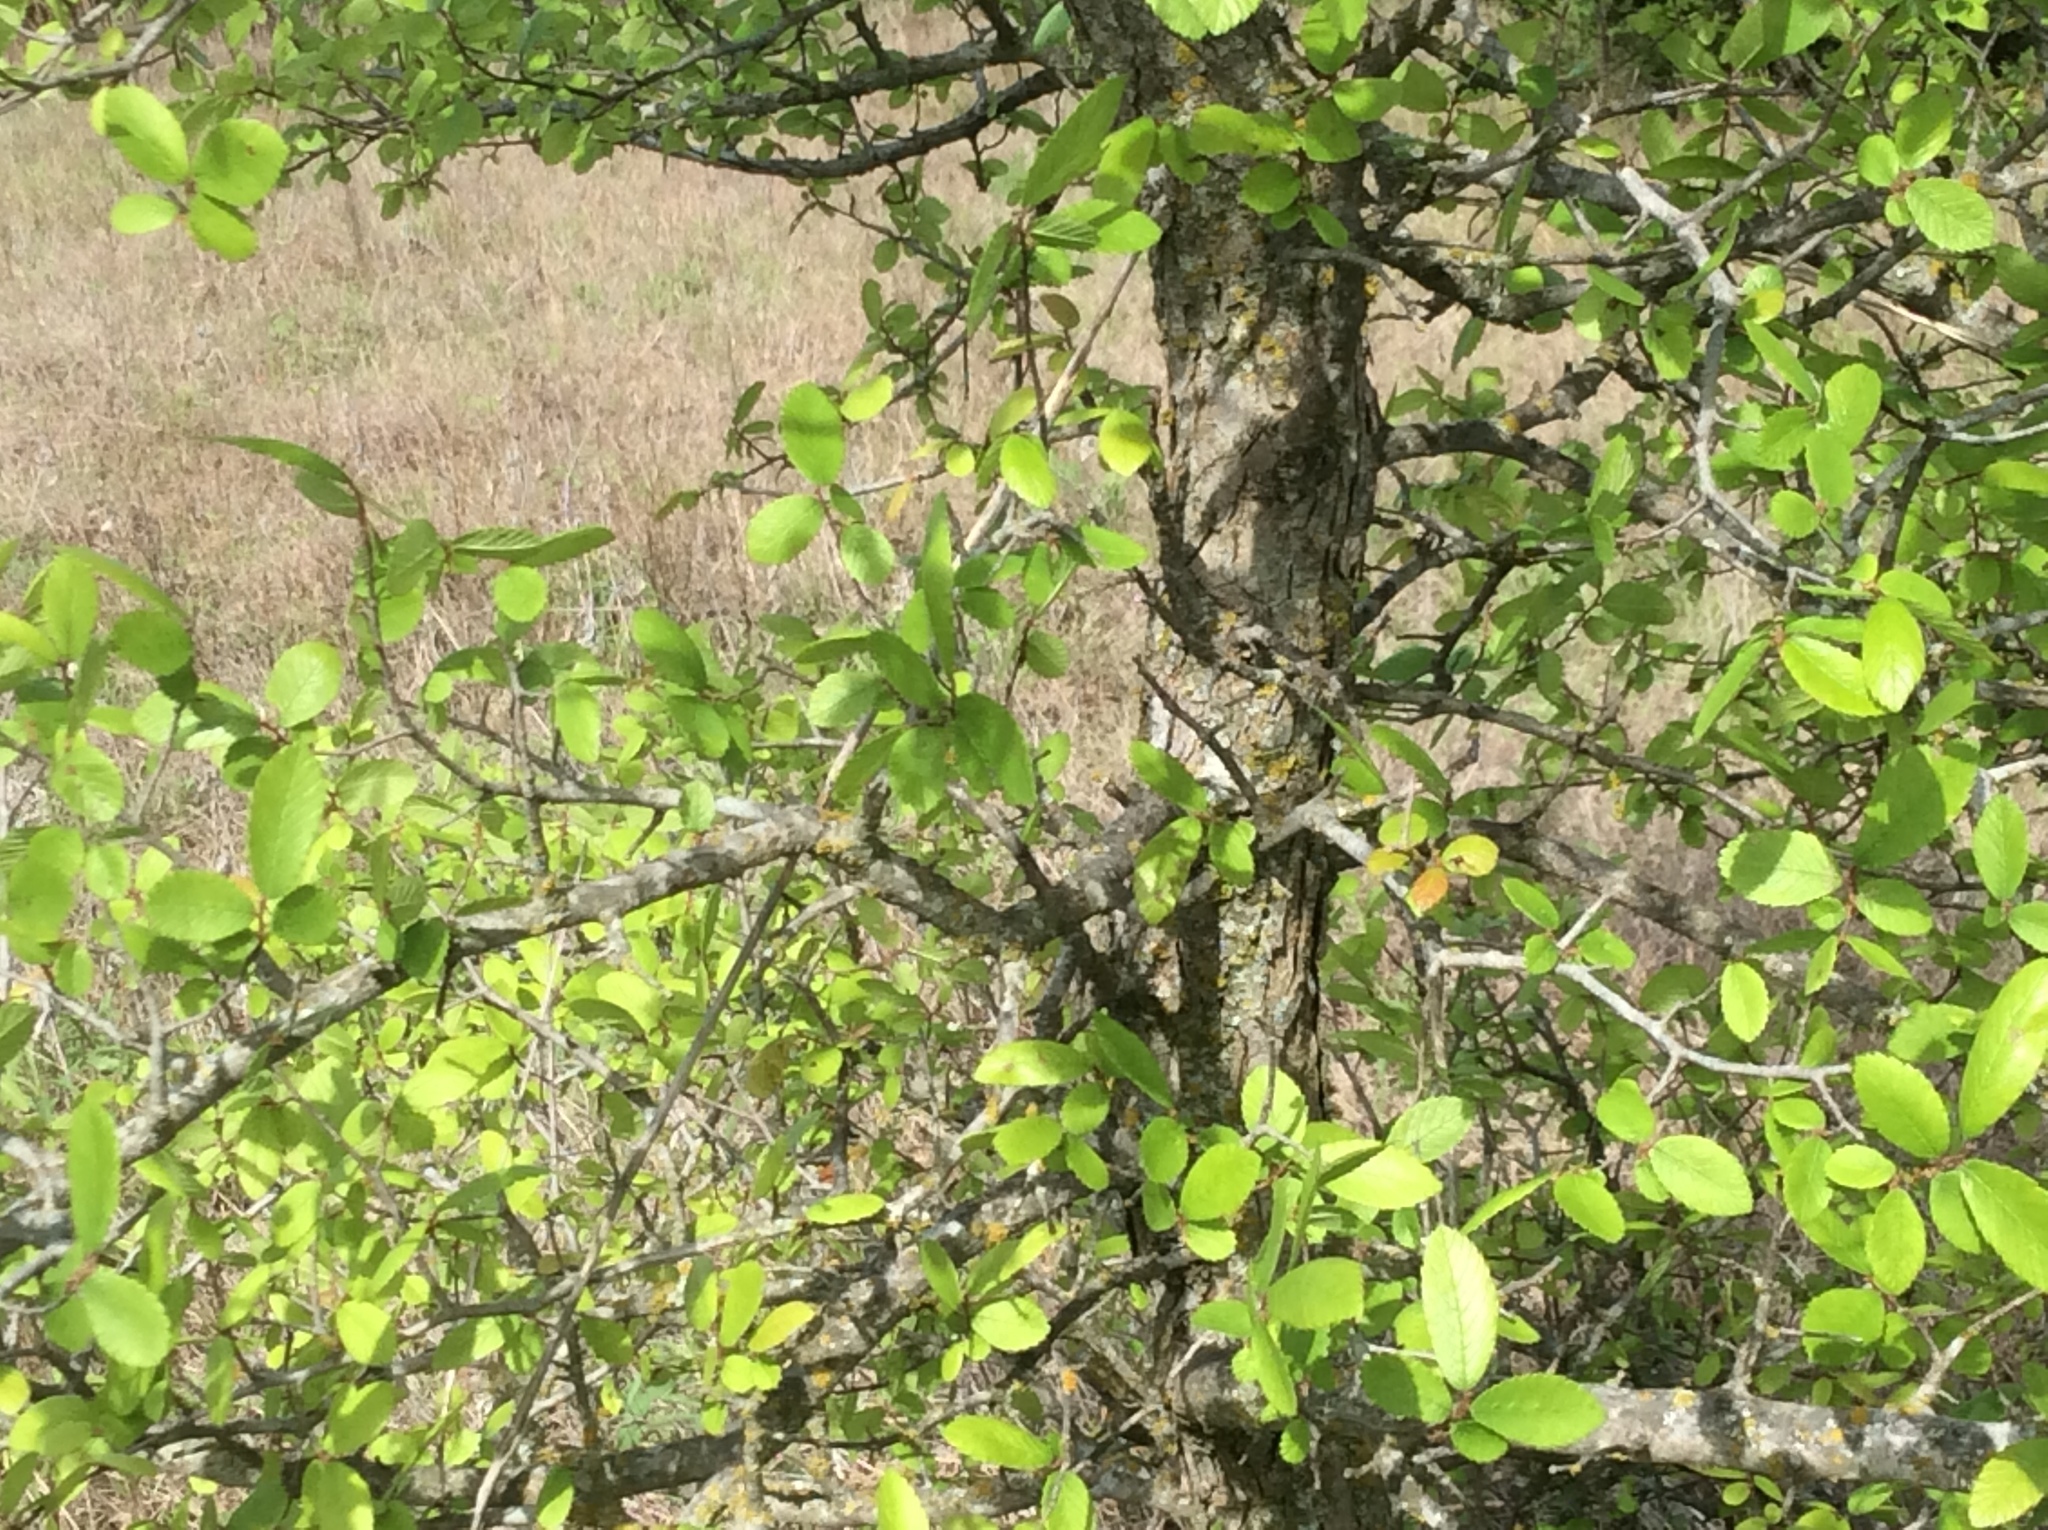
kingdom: Plantae
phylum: Tracheophyta
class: Magnoliopsida
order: Rosales
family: Ulmaceae
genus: Ulmus
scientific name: Ulmus crassifolia
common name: Basket elm
